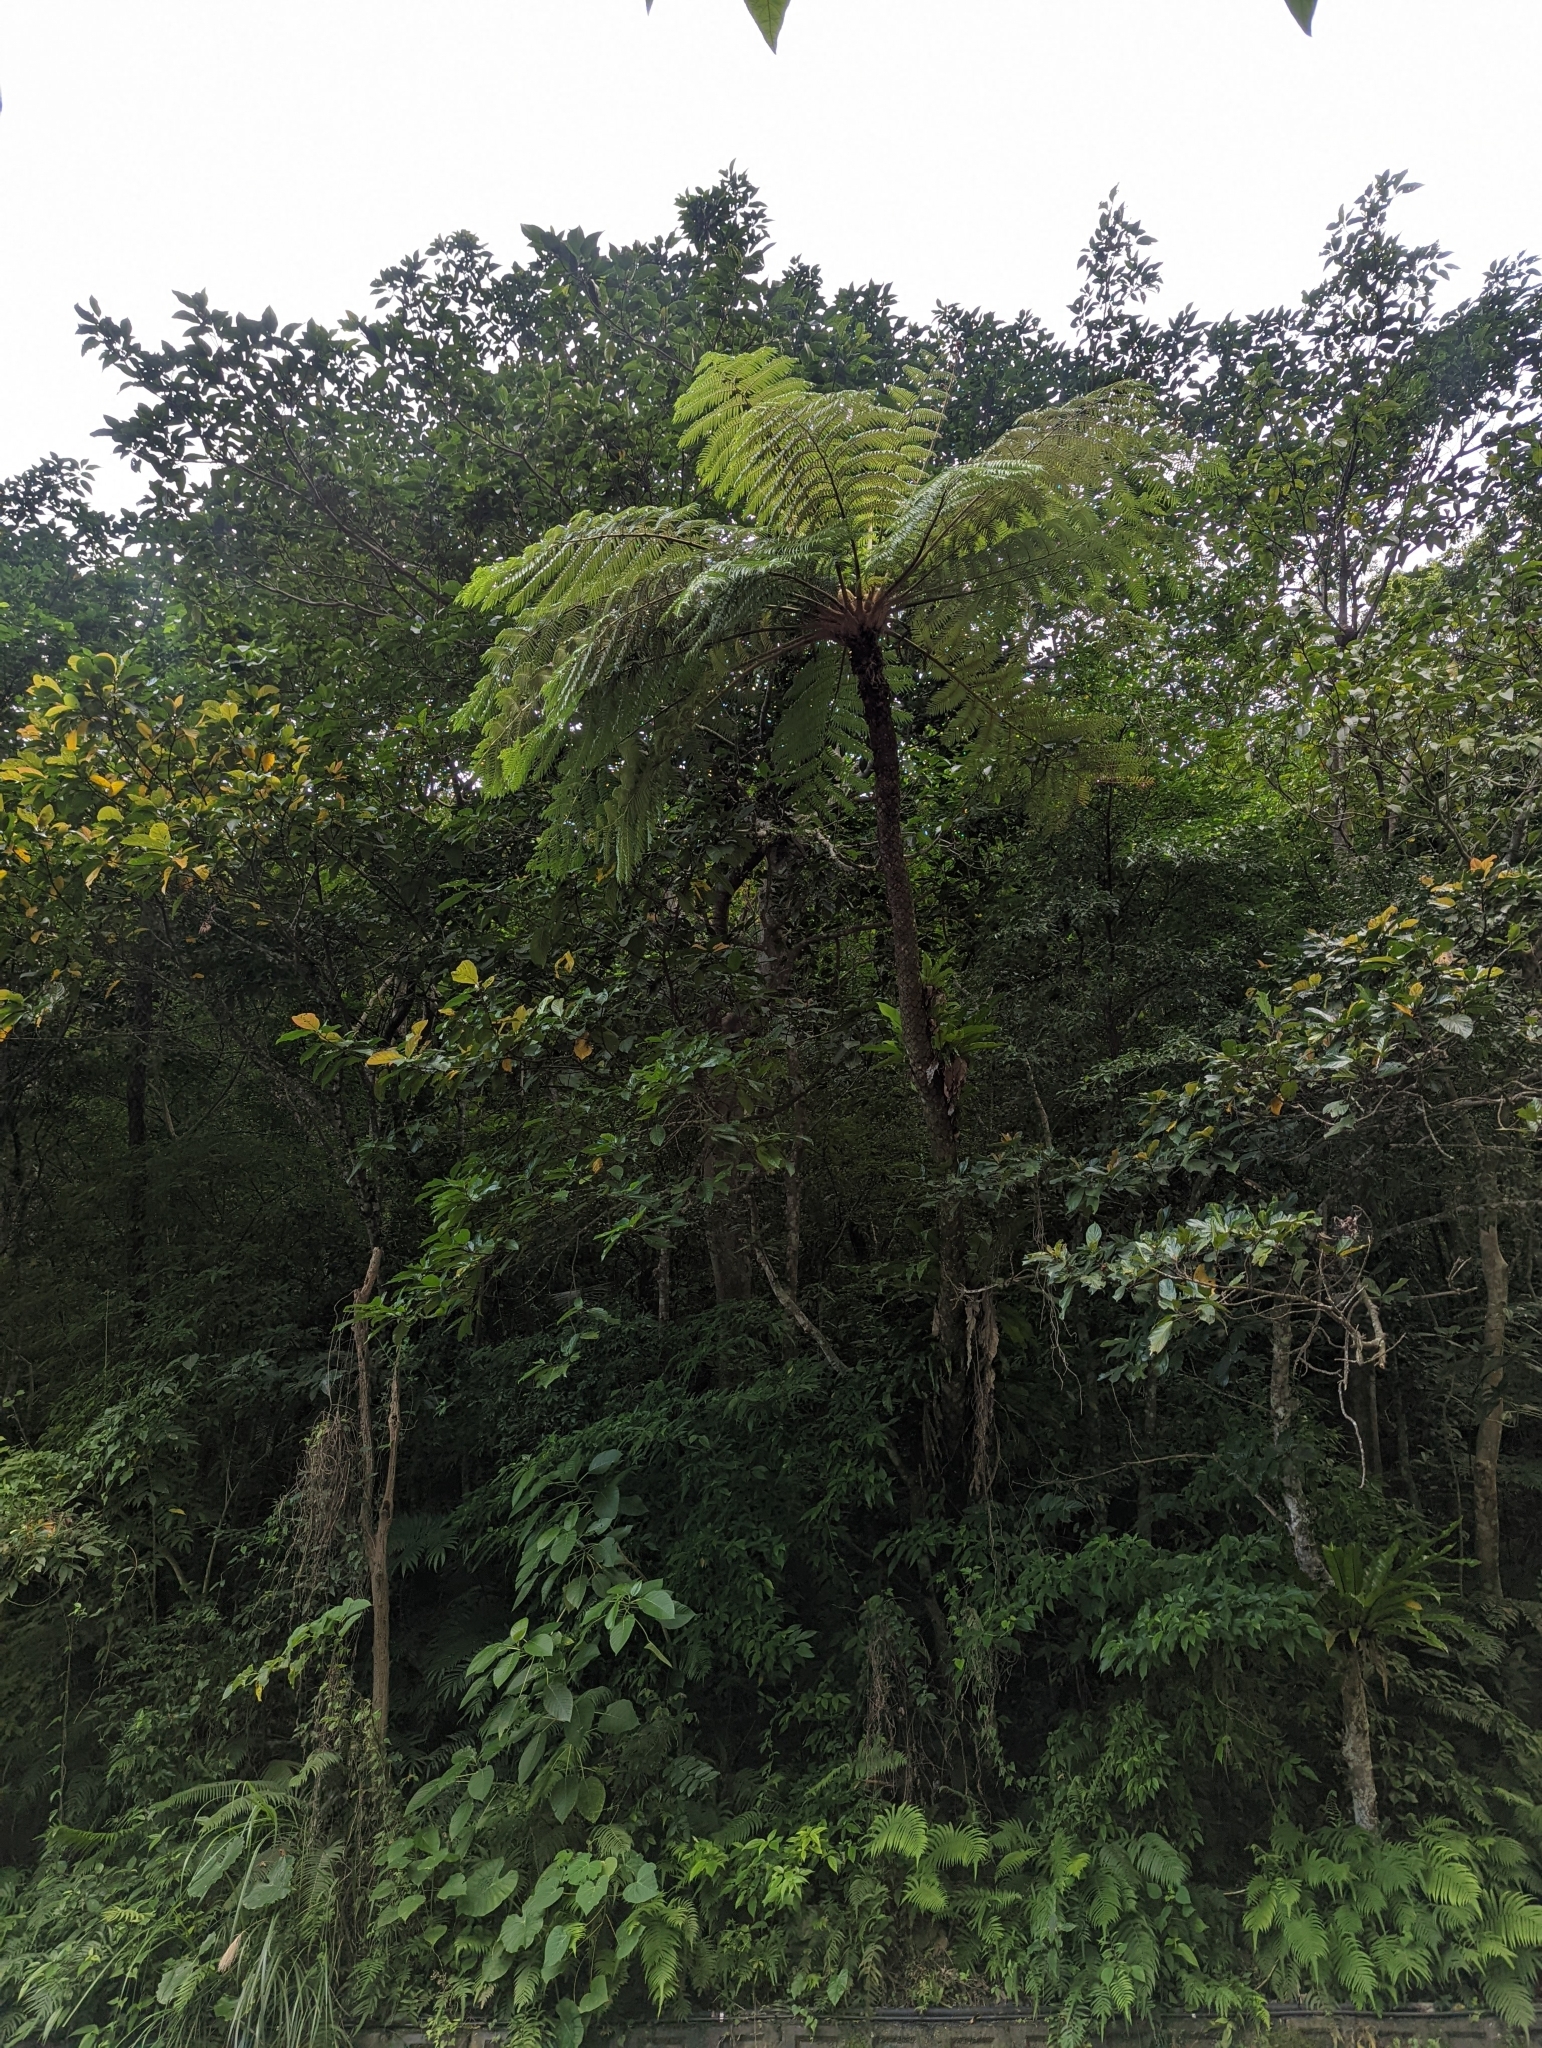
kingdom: Plantae
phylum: Tracheophyta
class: Polypodiopsida
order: Cyatheales
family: Cyatheaceae
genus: Alsophila
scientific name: Alsophila lepifera
